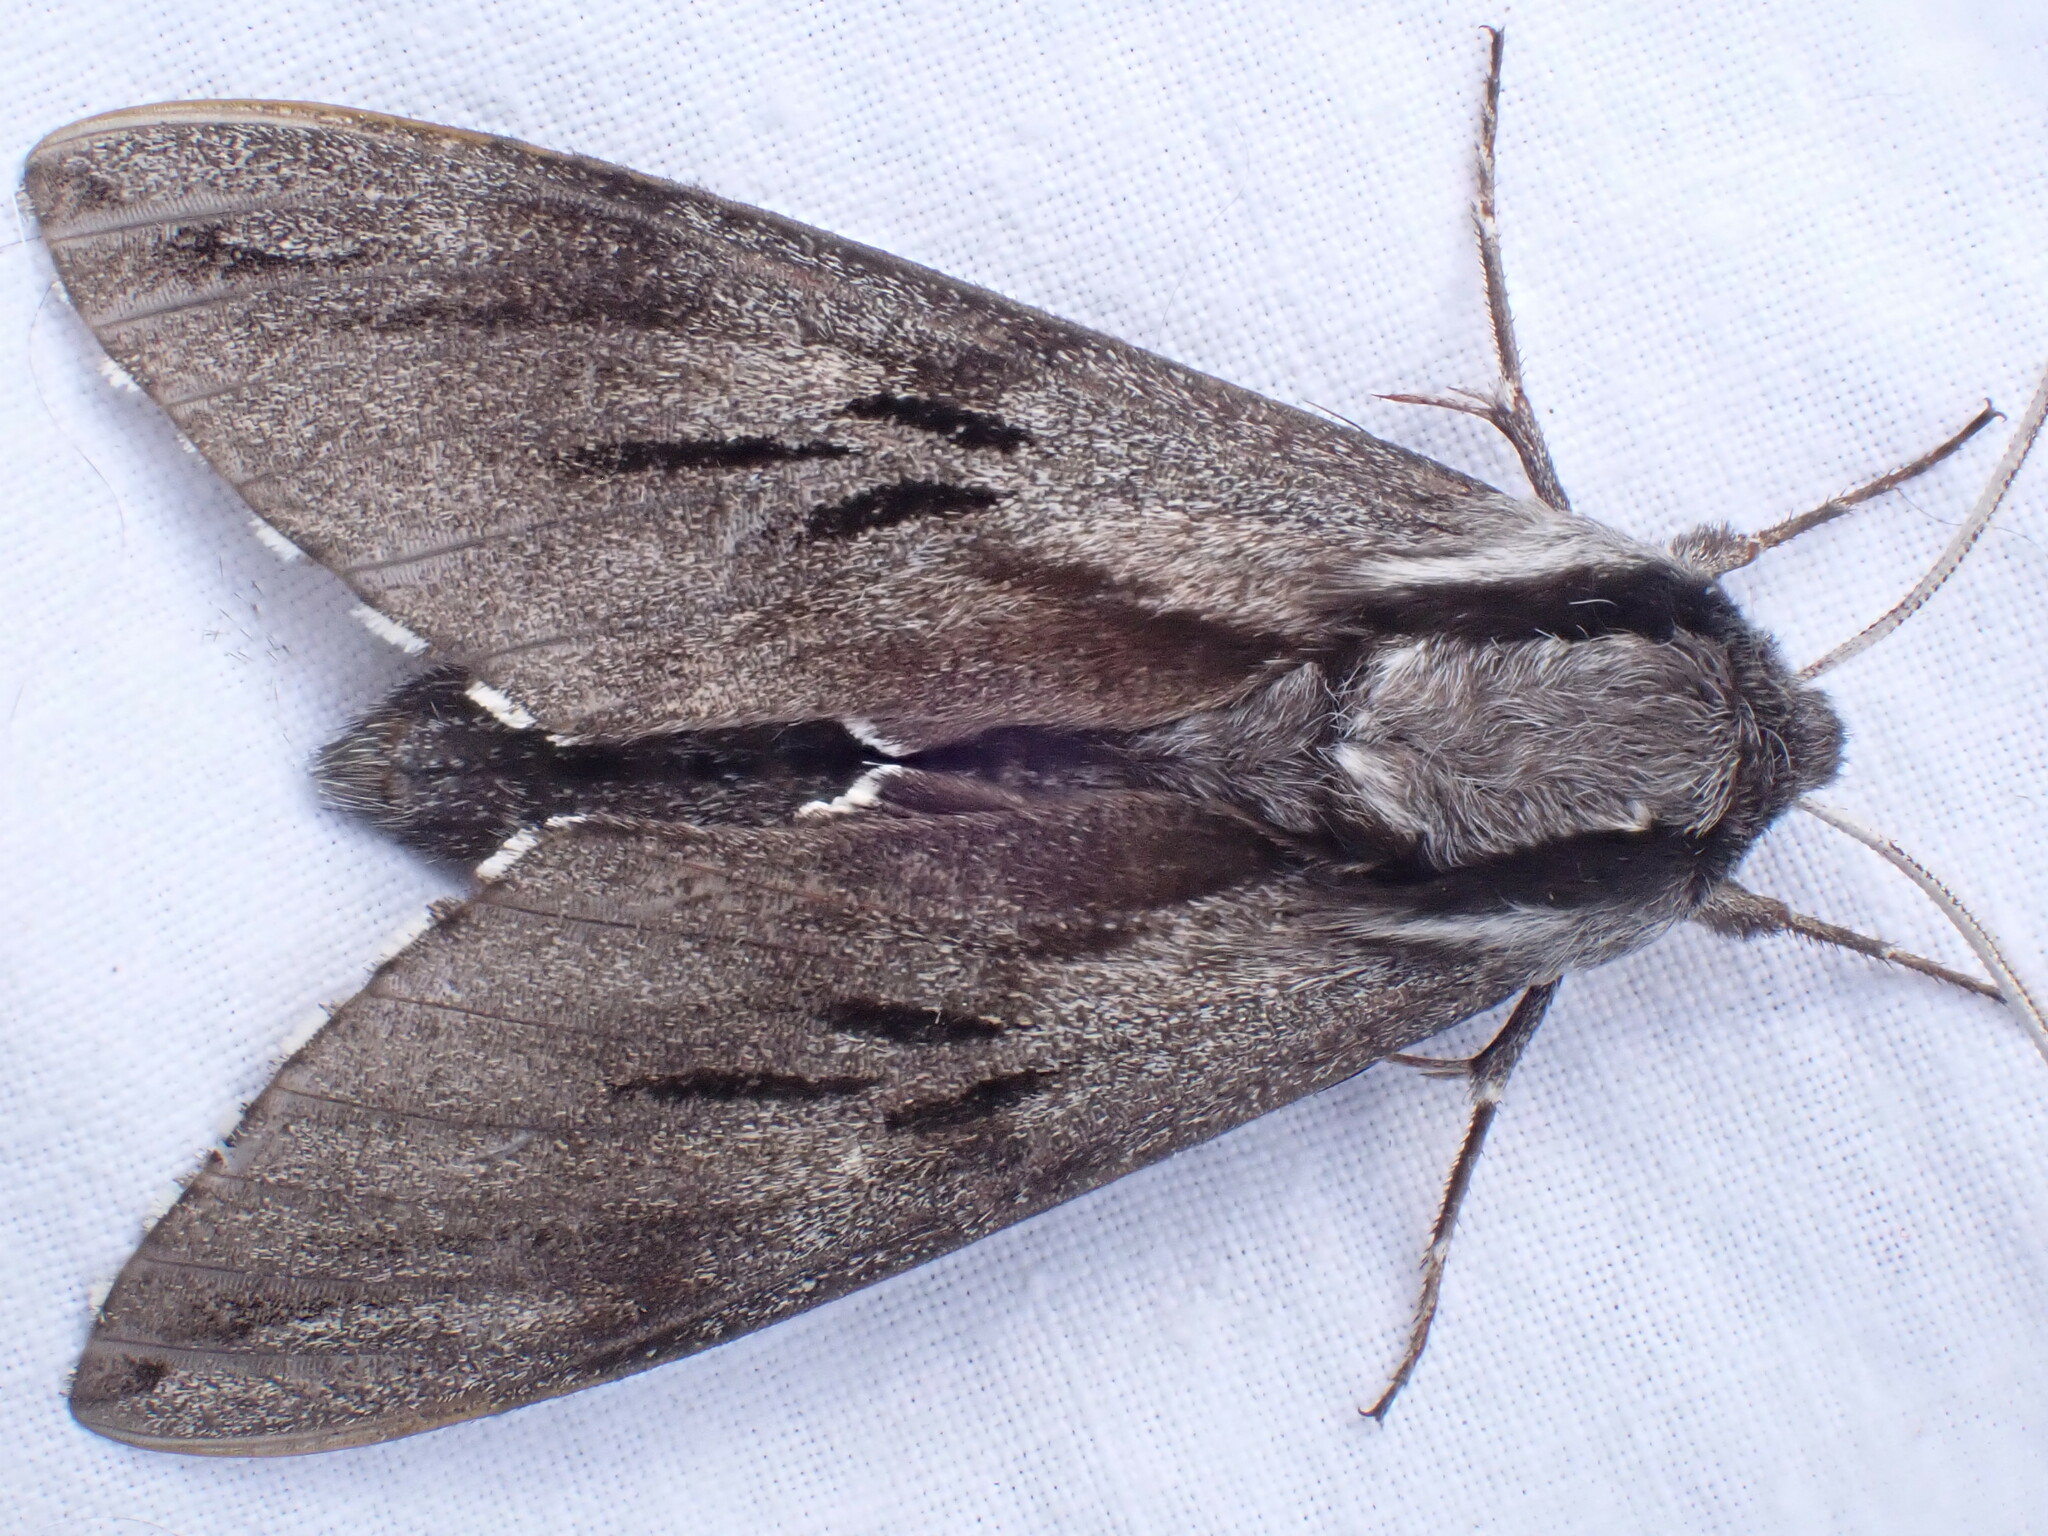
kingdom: Animalia
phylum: Arthropoda
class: Insecta
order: Lepidoptera
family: Sphingidae
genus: Sphinx
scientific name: Sphinx pinastri
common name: Pine hawk-moth
